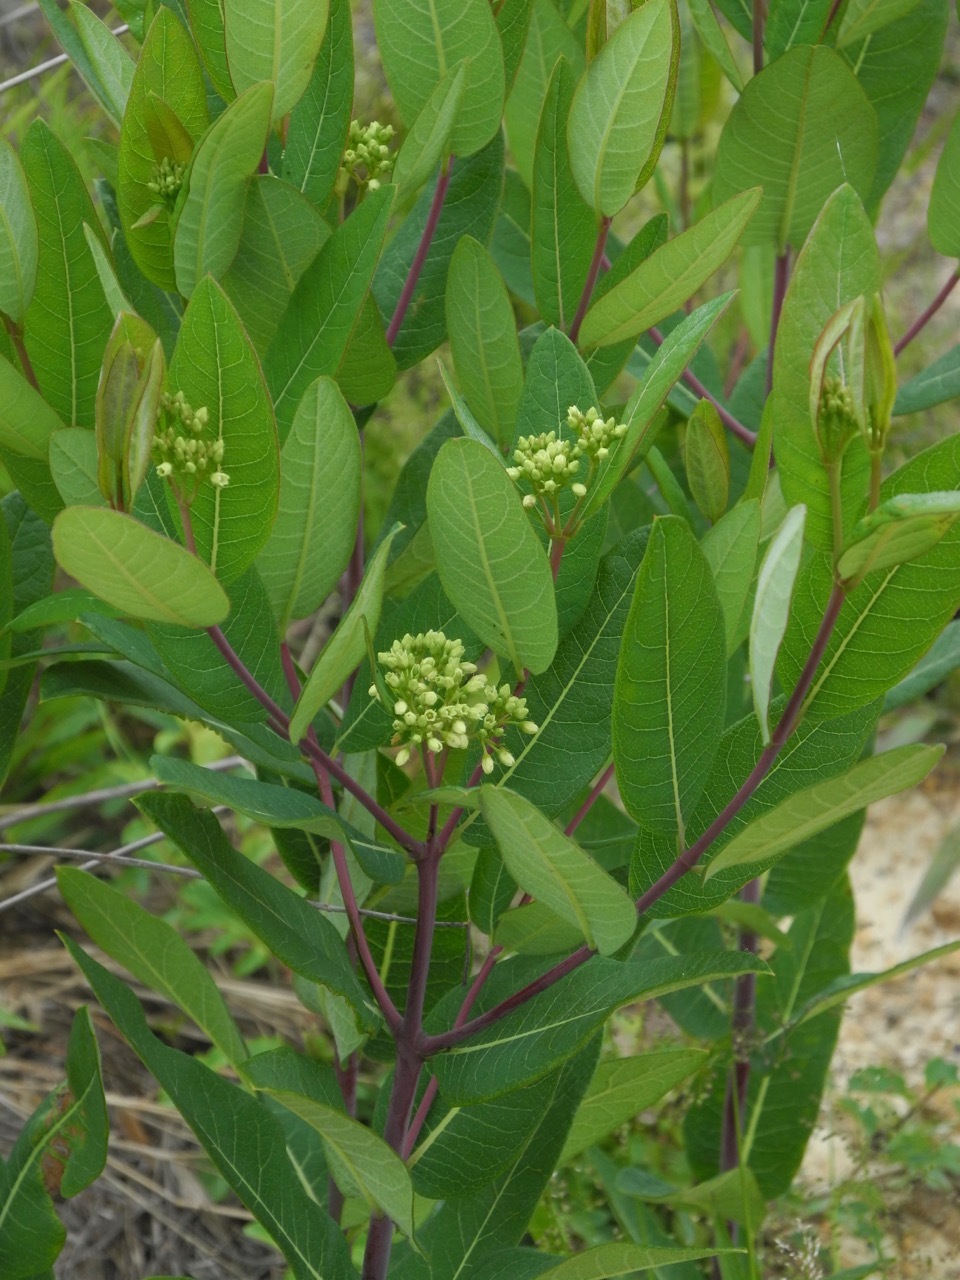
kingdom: Plantae
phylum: Tracheophyta
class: Magnoliopsida
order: Gentianales
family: Apocynaceae
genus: Apocynum
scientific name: Apocynum cannabinum
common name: Hemp dogbane
